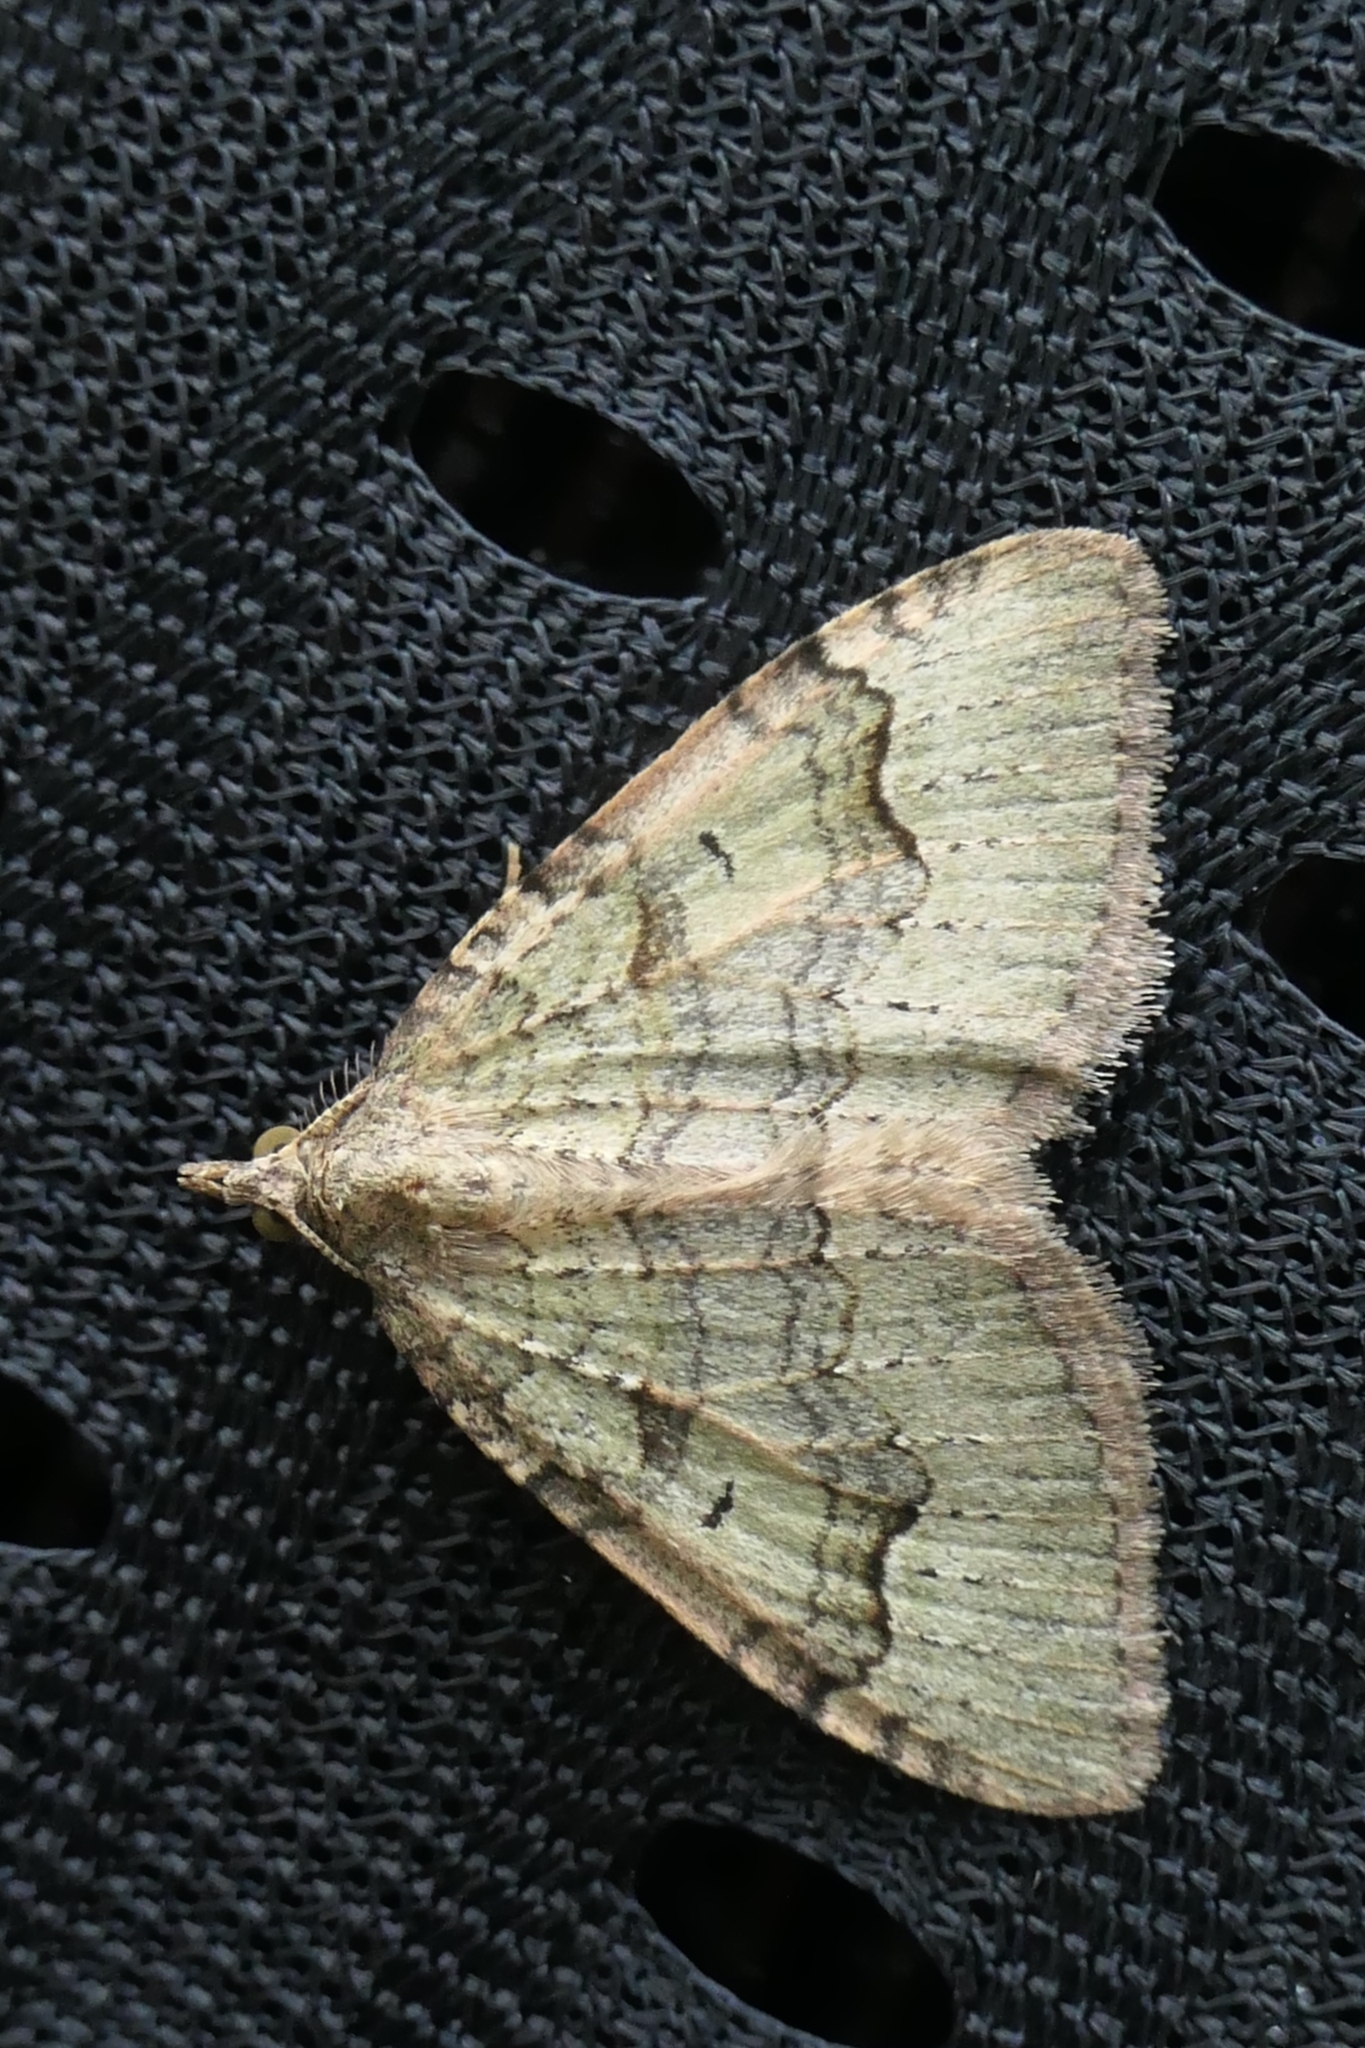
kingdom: Animalia
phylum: Arthropoda
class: Insecta
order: Lepidoptera
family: Geometridae
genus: Epyaxa
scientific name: Epyaxa rosearia
